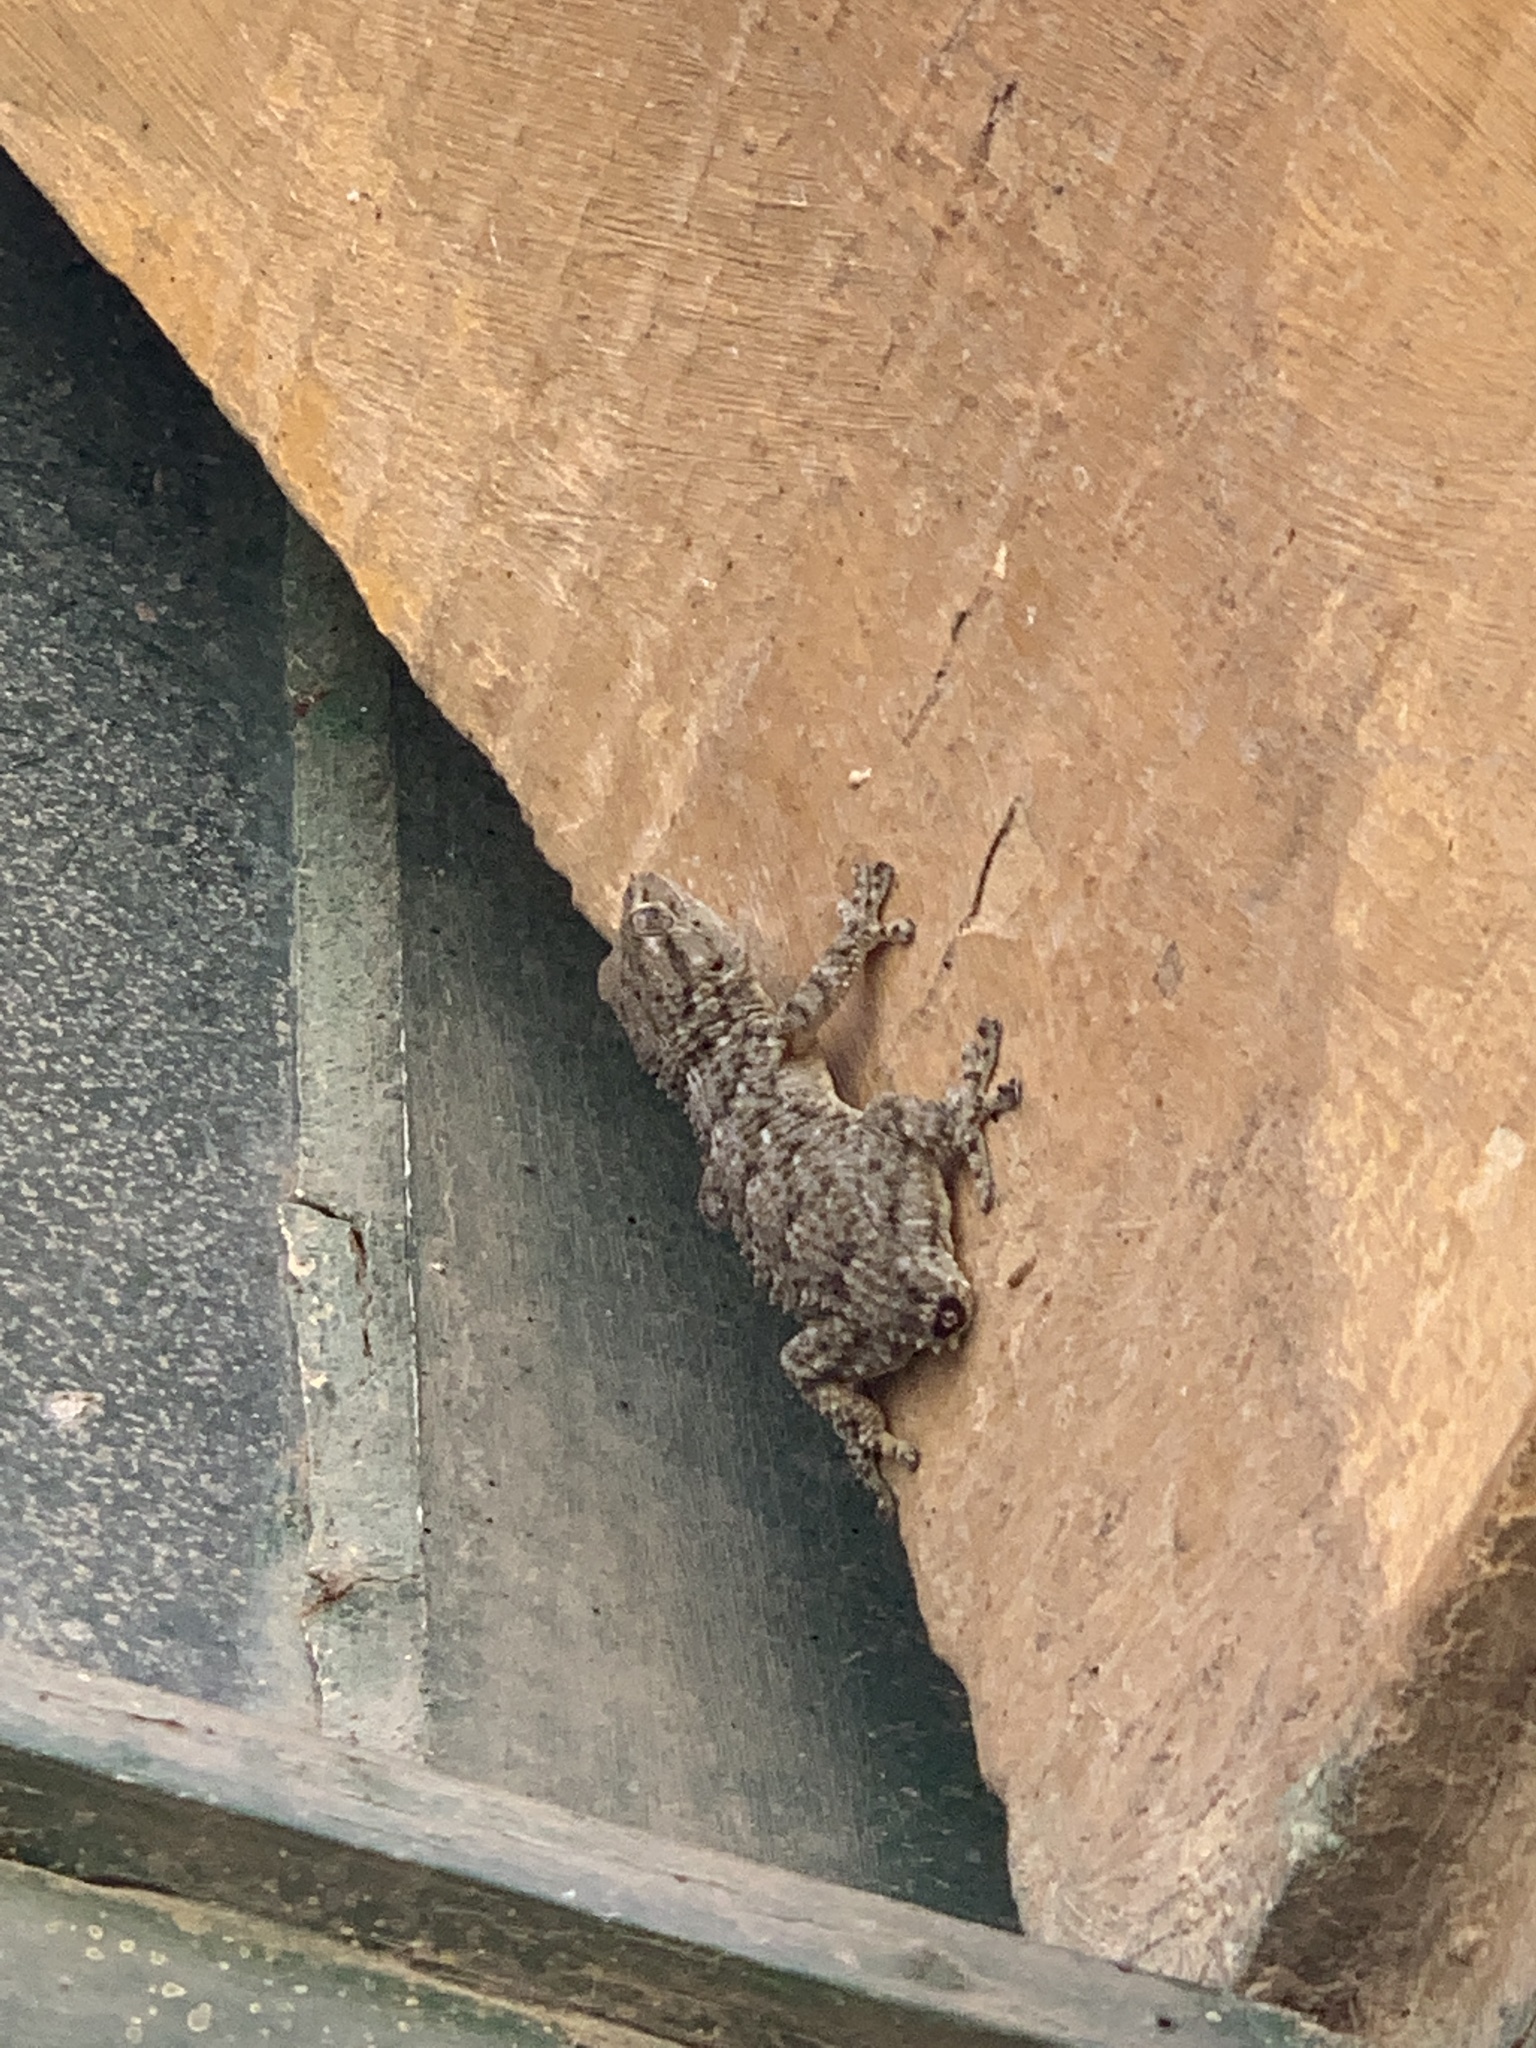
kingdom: Animalia
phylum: Chordata
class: Squamata
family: Phyllodactylidae
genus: Tarentola
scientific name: Tarentola mauritanica
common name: Moorish gecko
